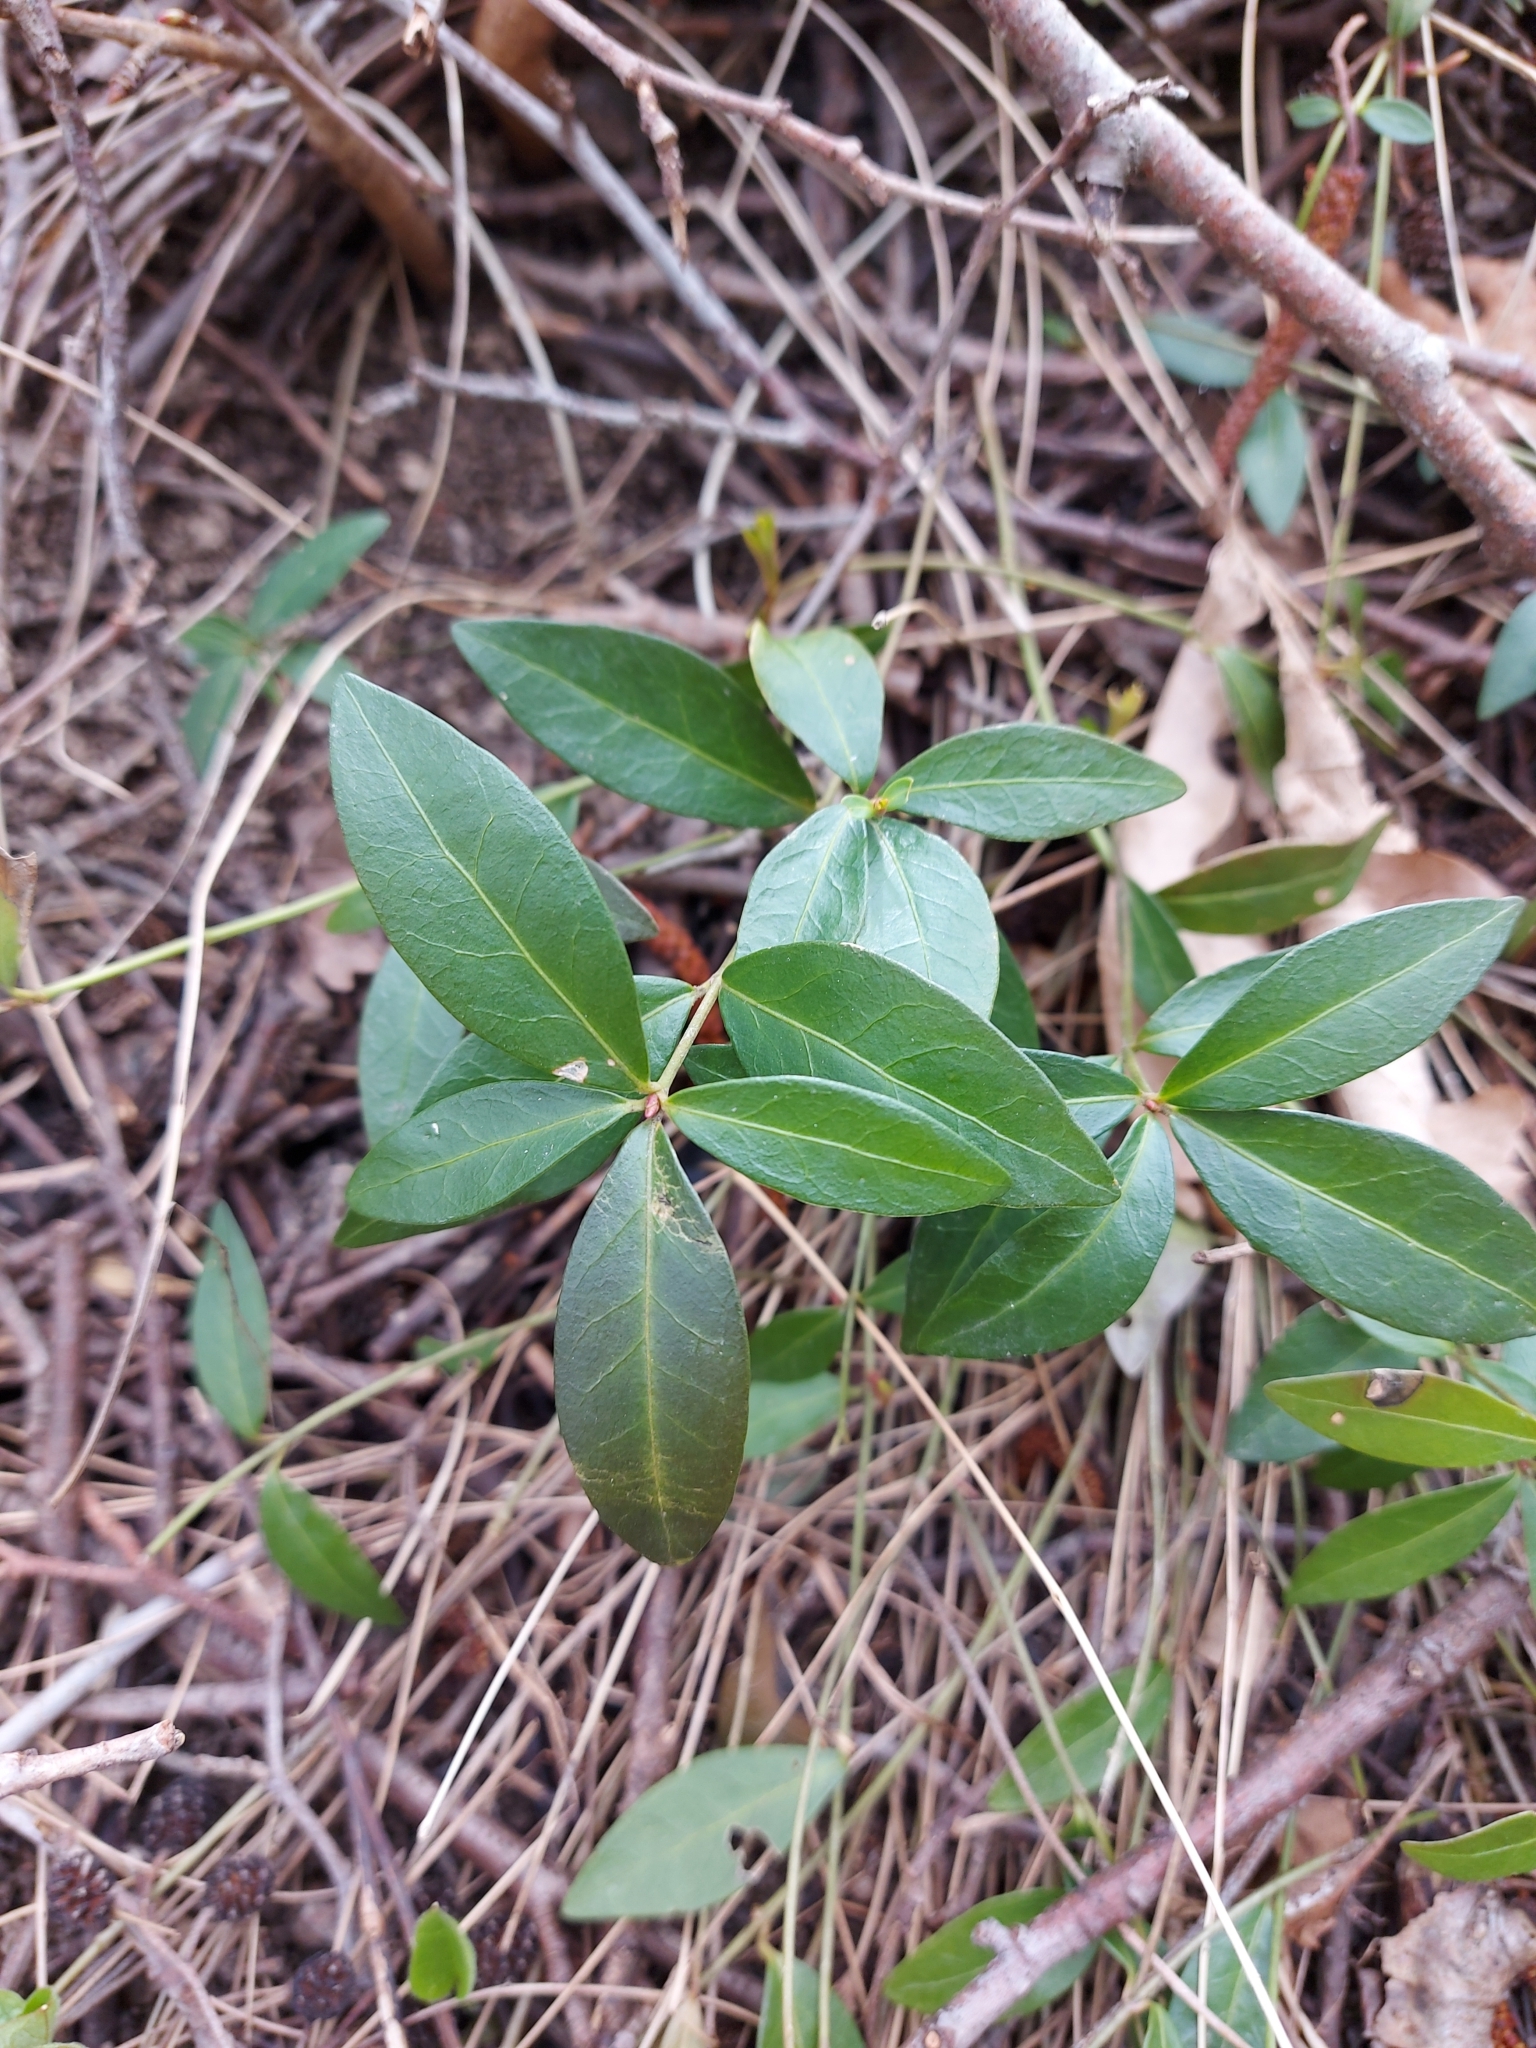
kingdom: Plantae
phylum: Tracheophyta
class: Magnoliopsida
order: Gentianales
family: Apocynaceae
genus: Vinca
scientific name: Vinca minor
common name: Lesser periwinkle
